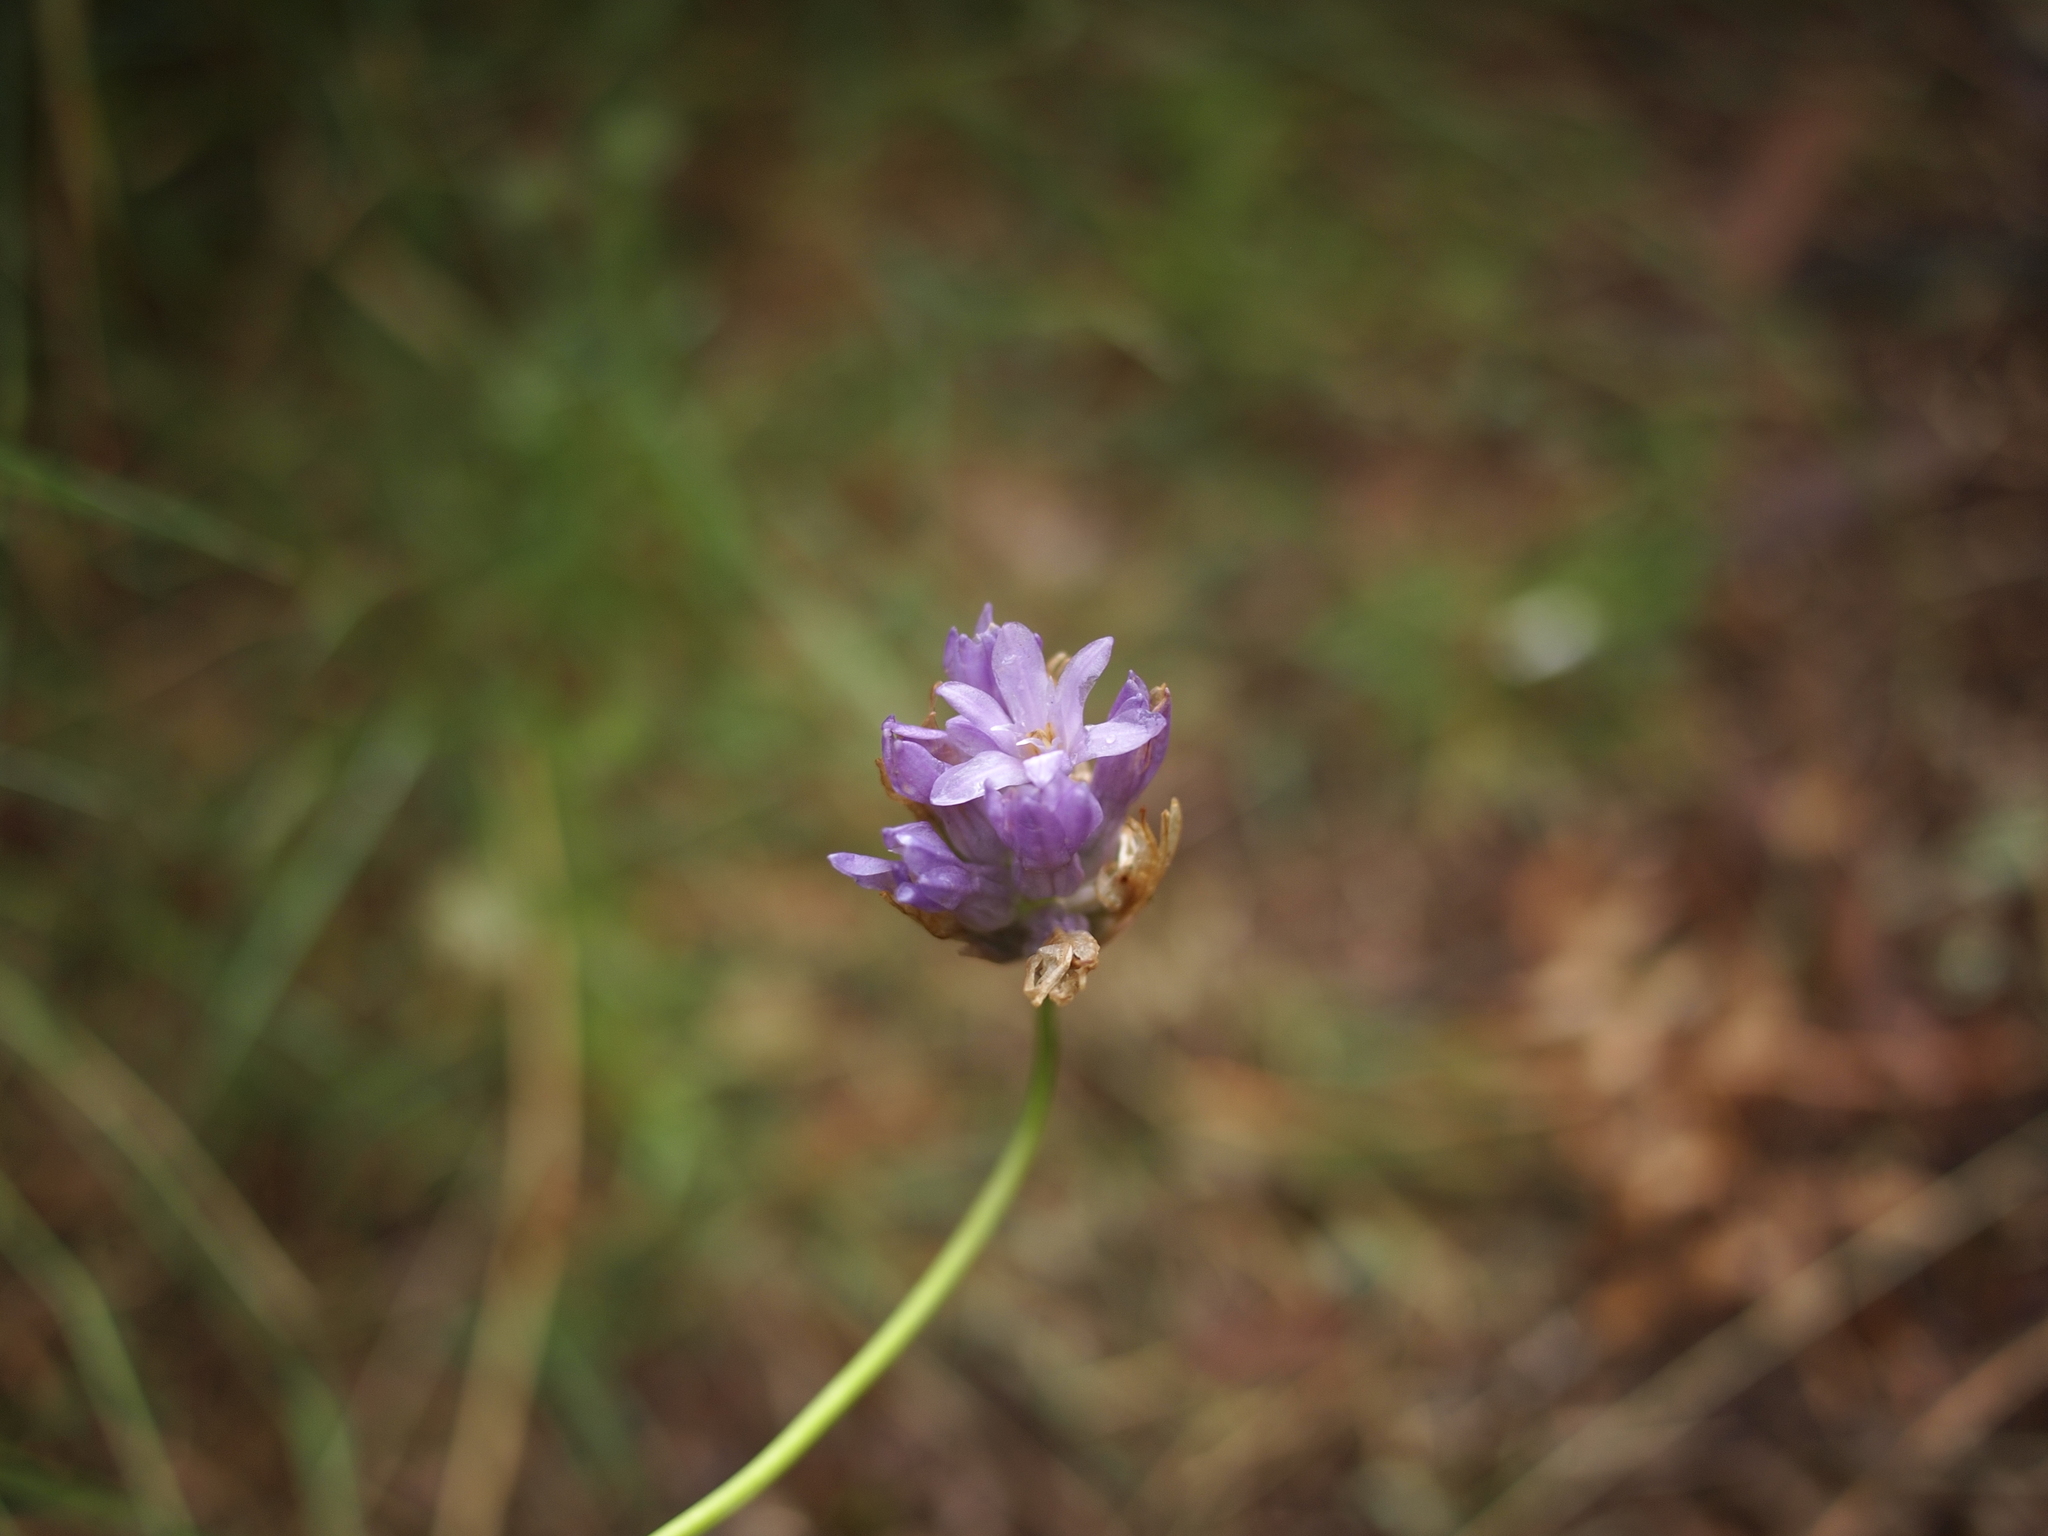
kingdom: Plantae
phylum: Tracheophyta
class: Liliopsida
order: Asparagales
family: Asparagaceae
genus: Dichelostemma
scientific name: Dichelostemma congestum
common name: Fork-tooth ookow
